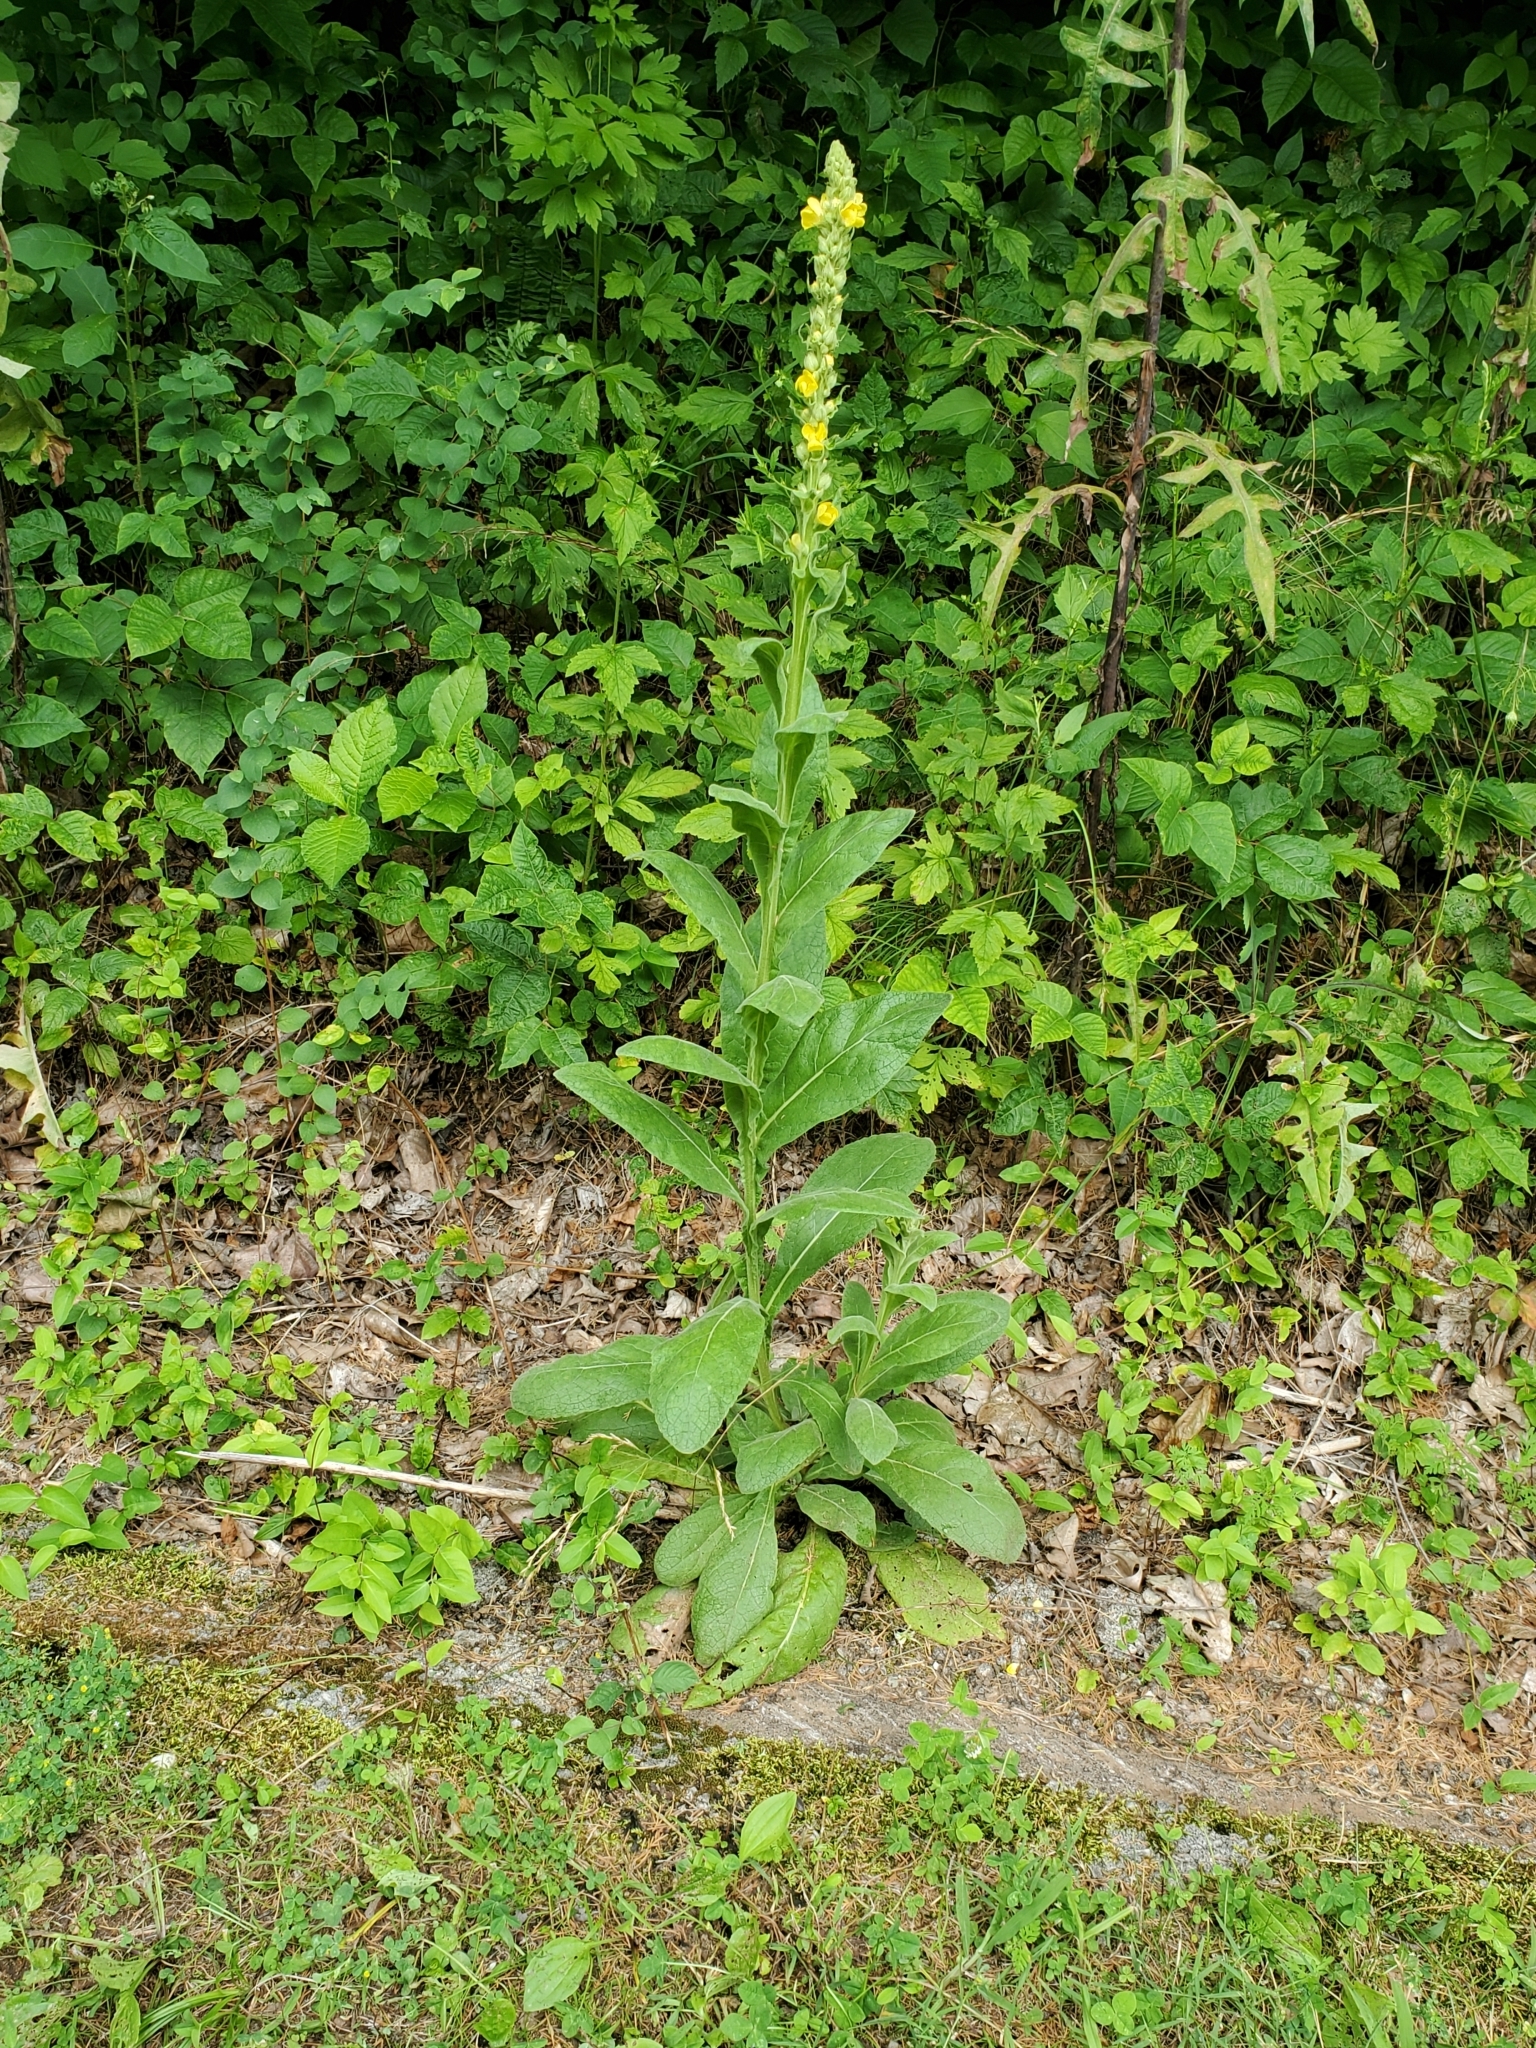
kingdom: Plantae
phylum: Tracheophyta
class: Magnoliopsida
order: Lamiales
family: Scrophulariaceae
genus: Verbascum
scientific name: Verbascum thapsus
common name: Common mullein
